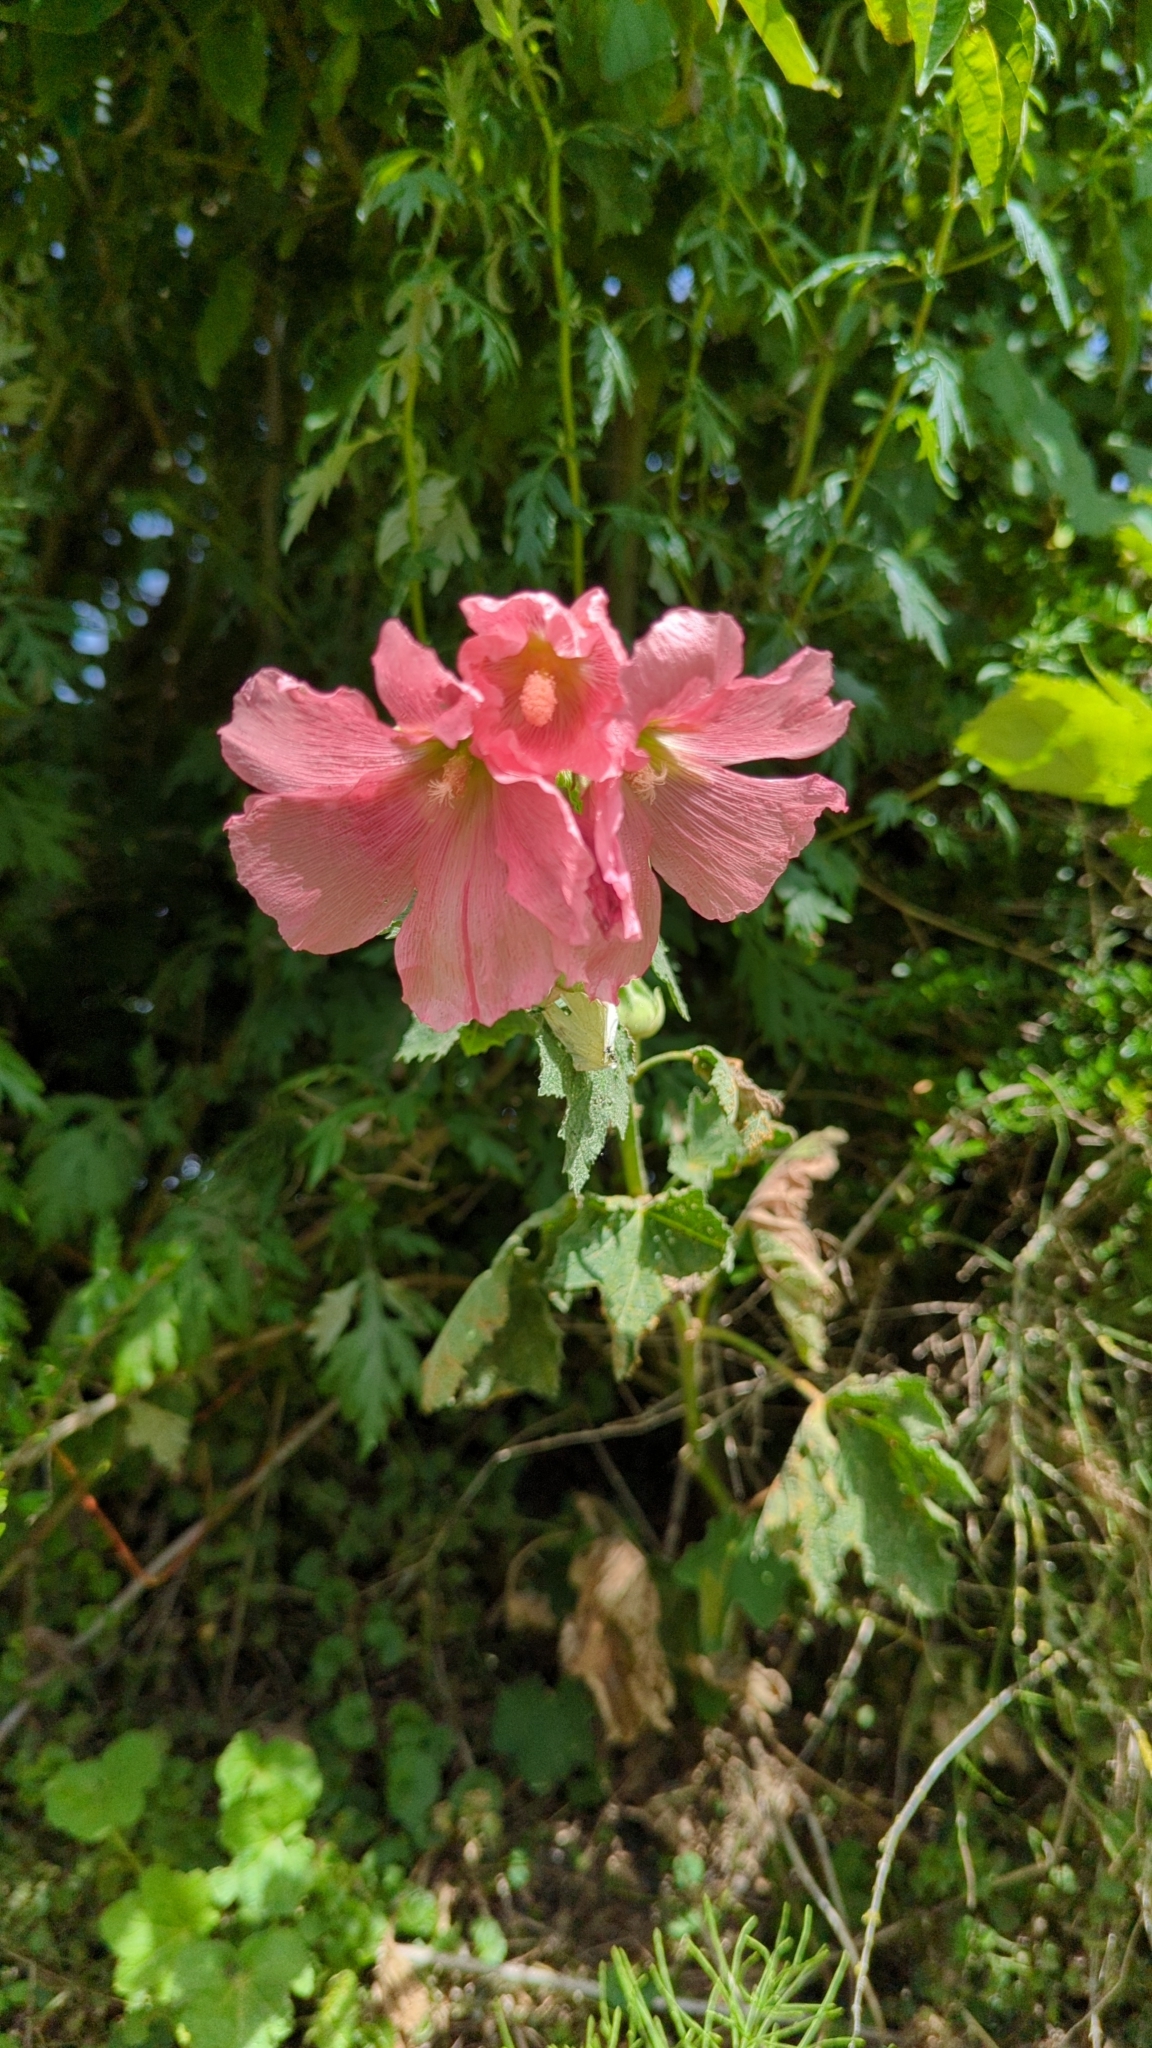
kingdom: Plantae
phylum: Tracheophyta
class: Magnoliopsida
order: Malvales
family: Malvaceae
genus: Alcea
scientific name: Alcea rosea
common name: Hollyhock
